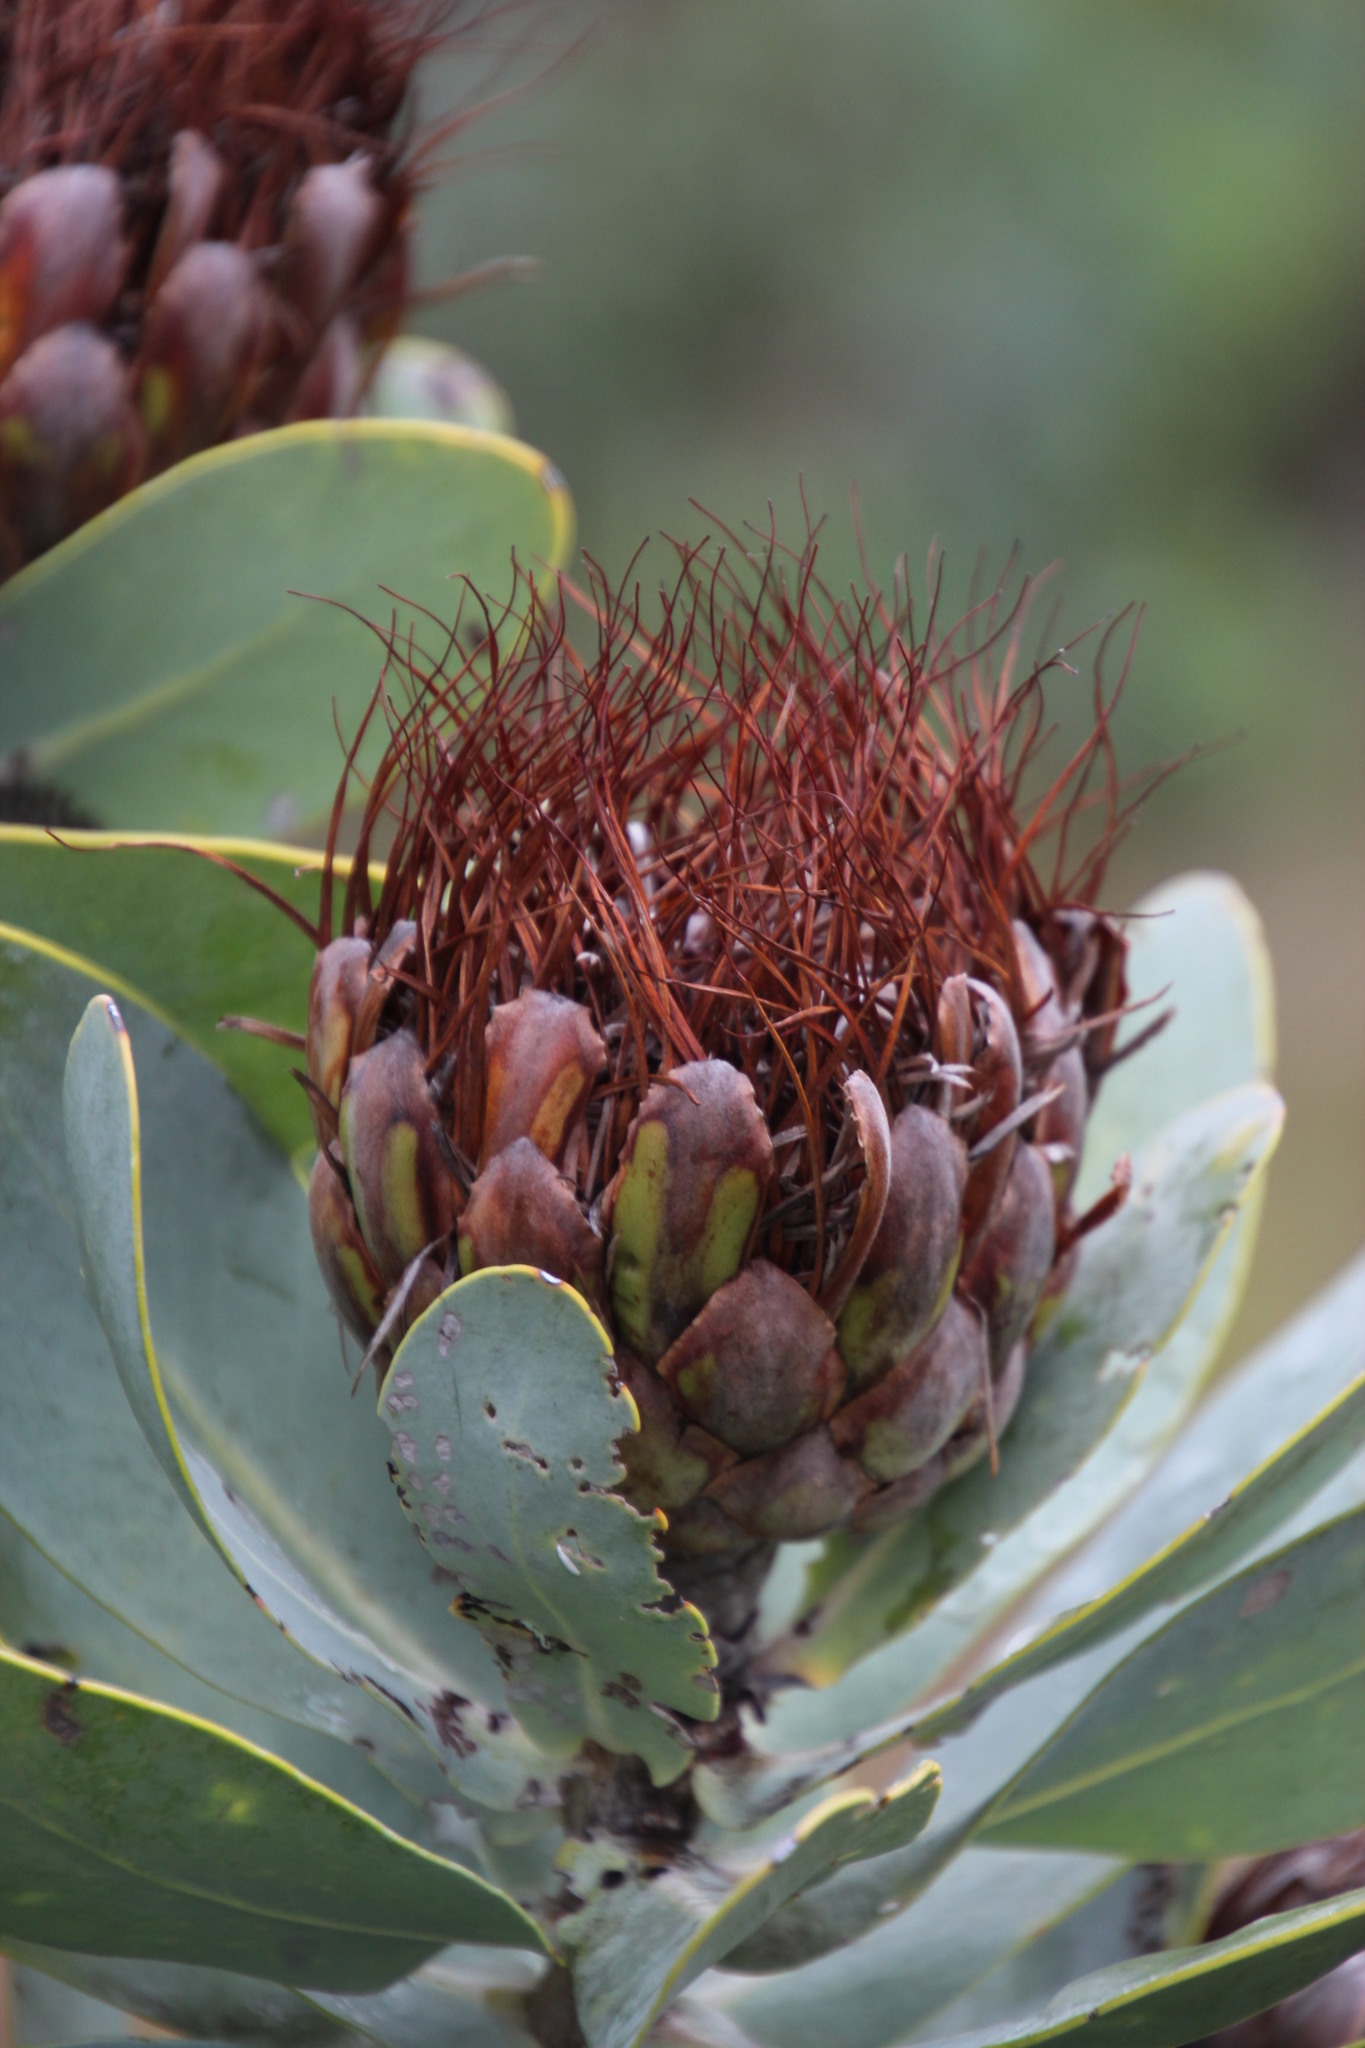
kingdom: Plantae
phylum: Tracheophyta
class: Magnoliopsida
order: Proteales
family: Proteaceae
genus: Protea
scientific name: Protea nitida
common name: Tree protea
